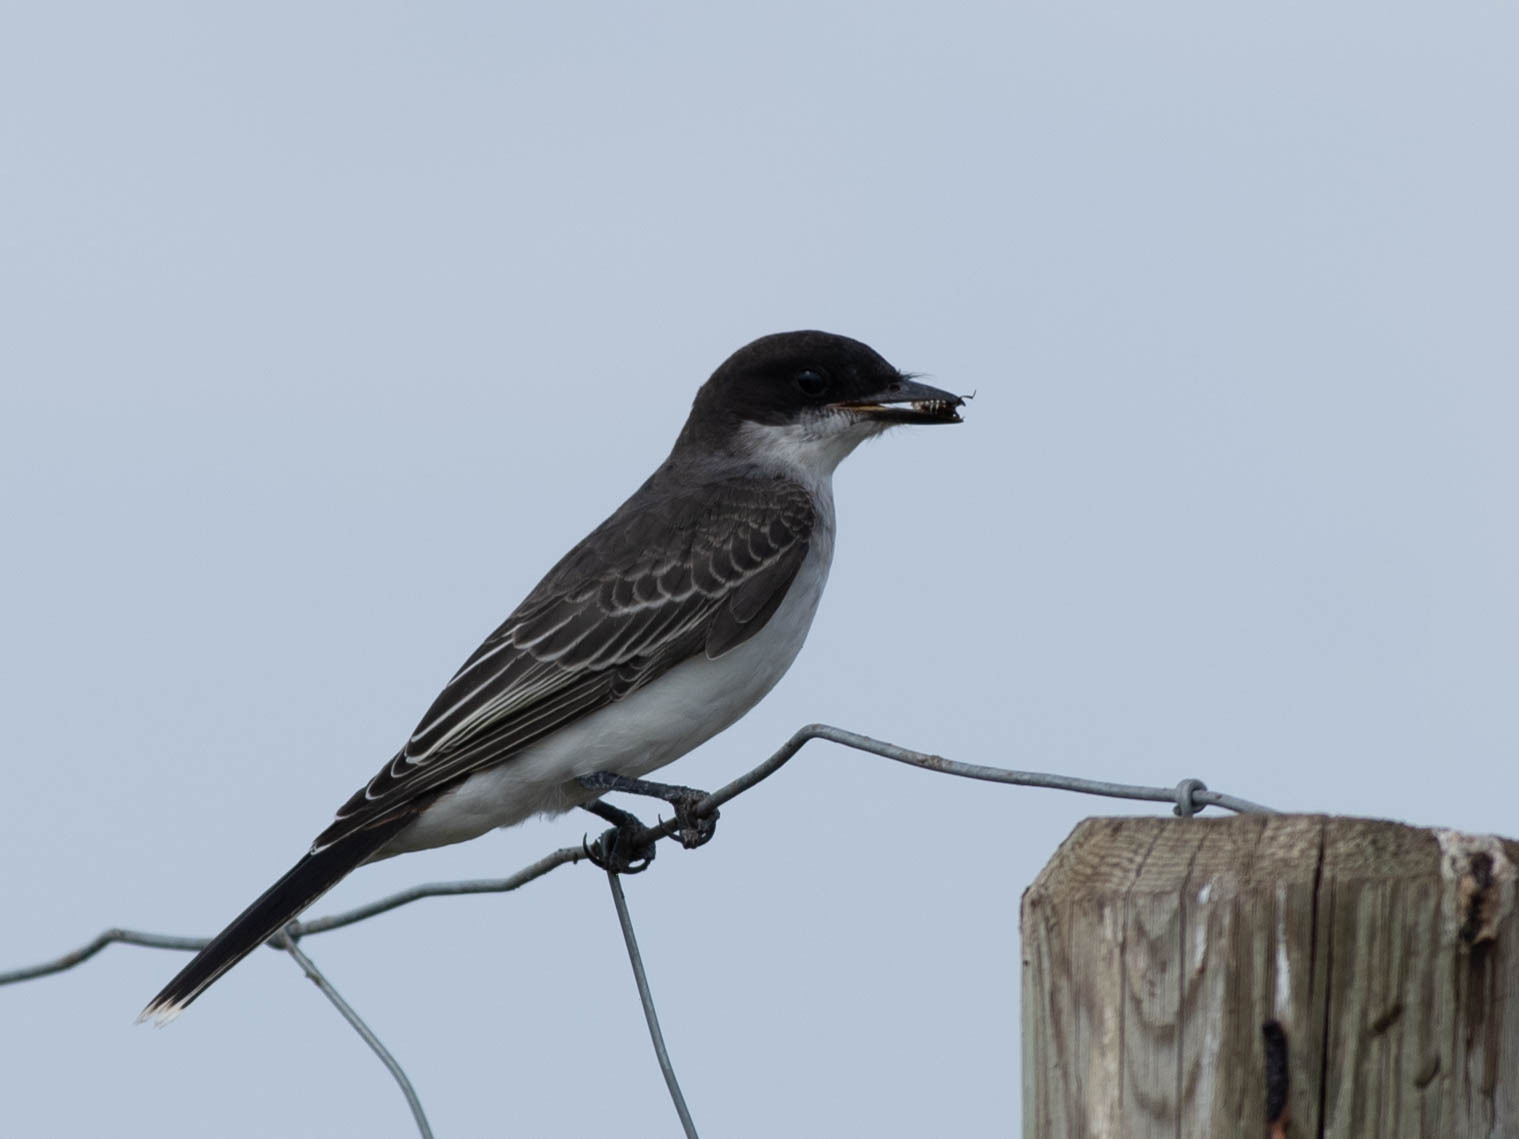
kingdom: Animalia
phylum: Chordata
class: Aves
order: Passeriformes
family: Tyrannidae
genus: Tyrannus
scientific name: Tyrannus tyrannus
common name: Eastern kingbird
